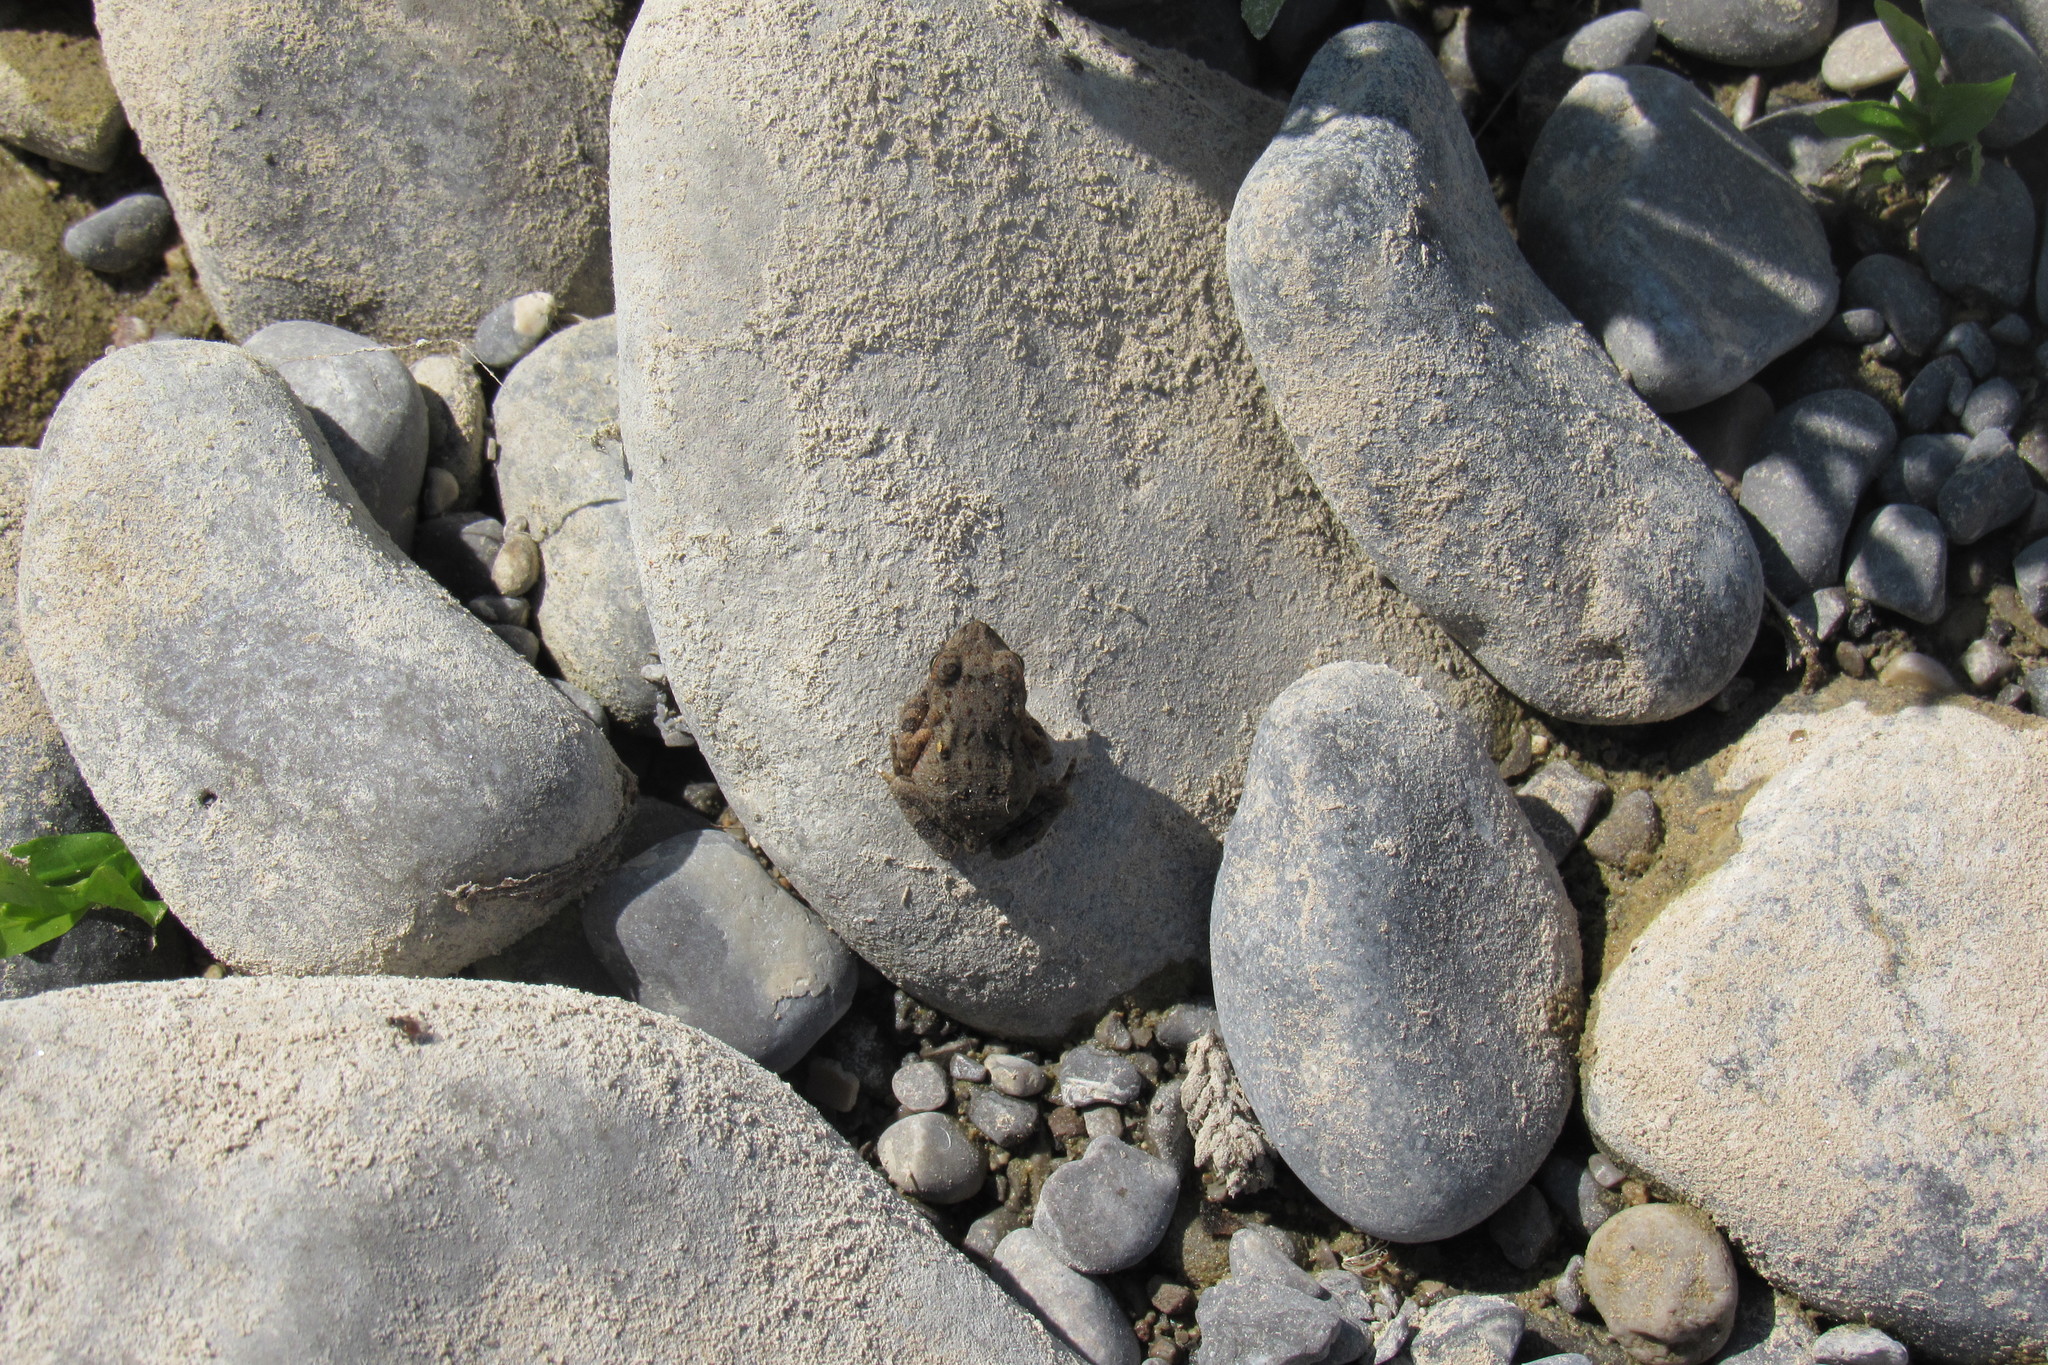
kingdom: Animalia
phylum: Chordata
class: Amphibia
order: Anura
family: Bufonidae
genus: Anaxyrus
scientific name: Anaxyrus speciosus
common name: Texas toad
